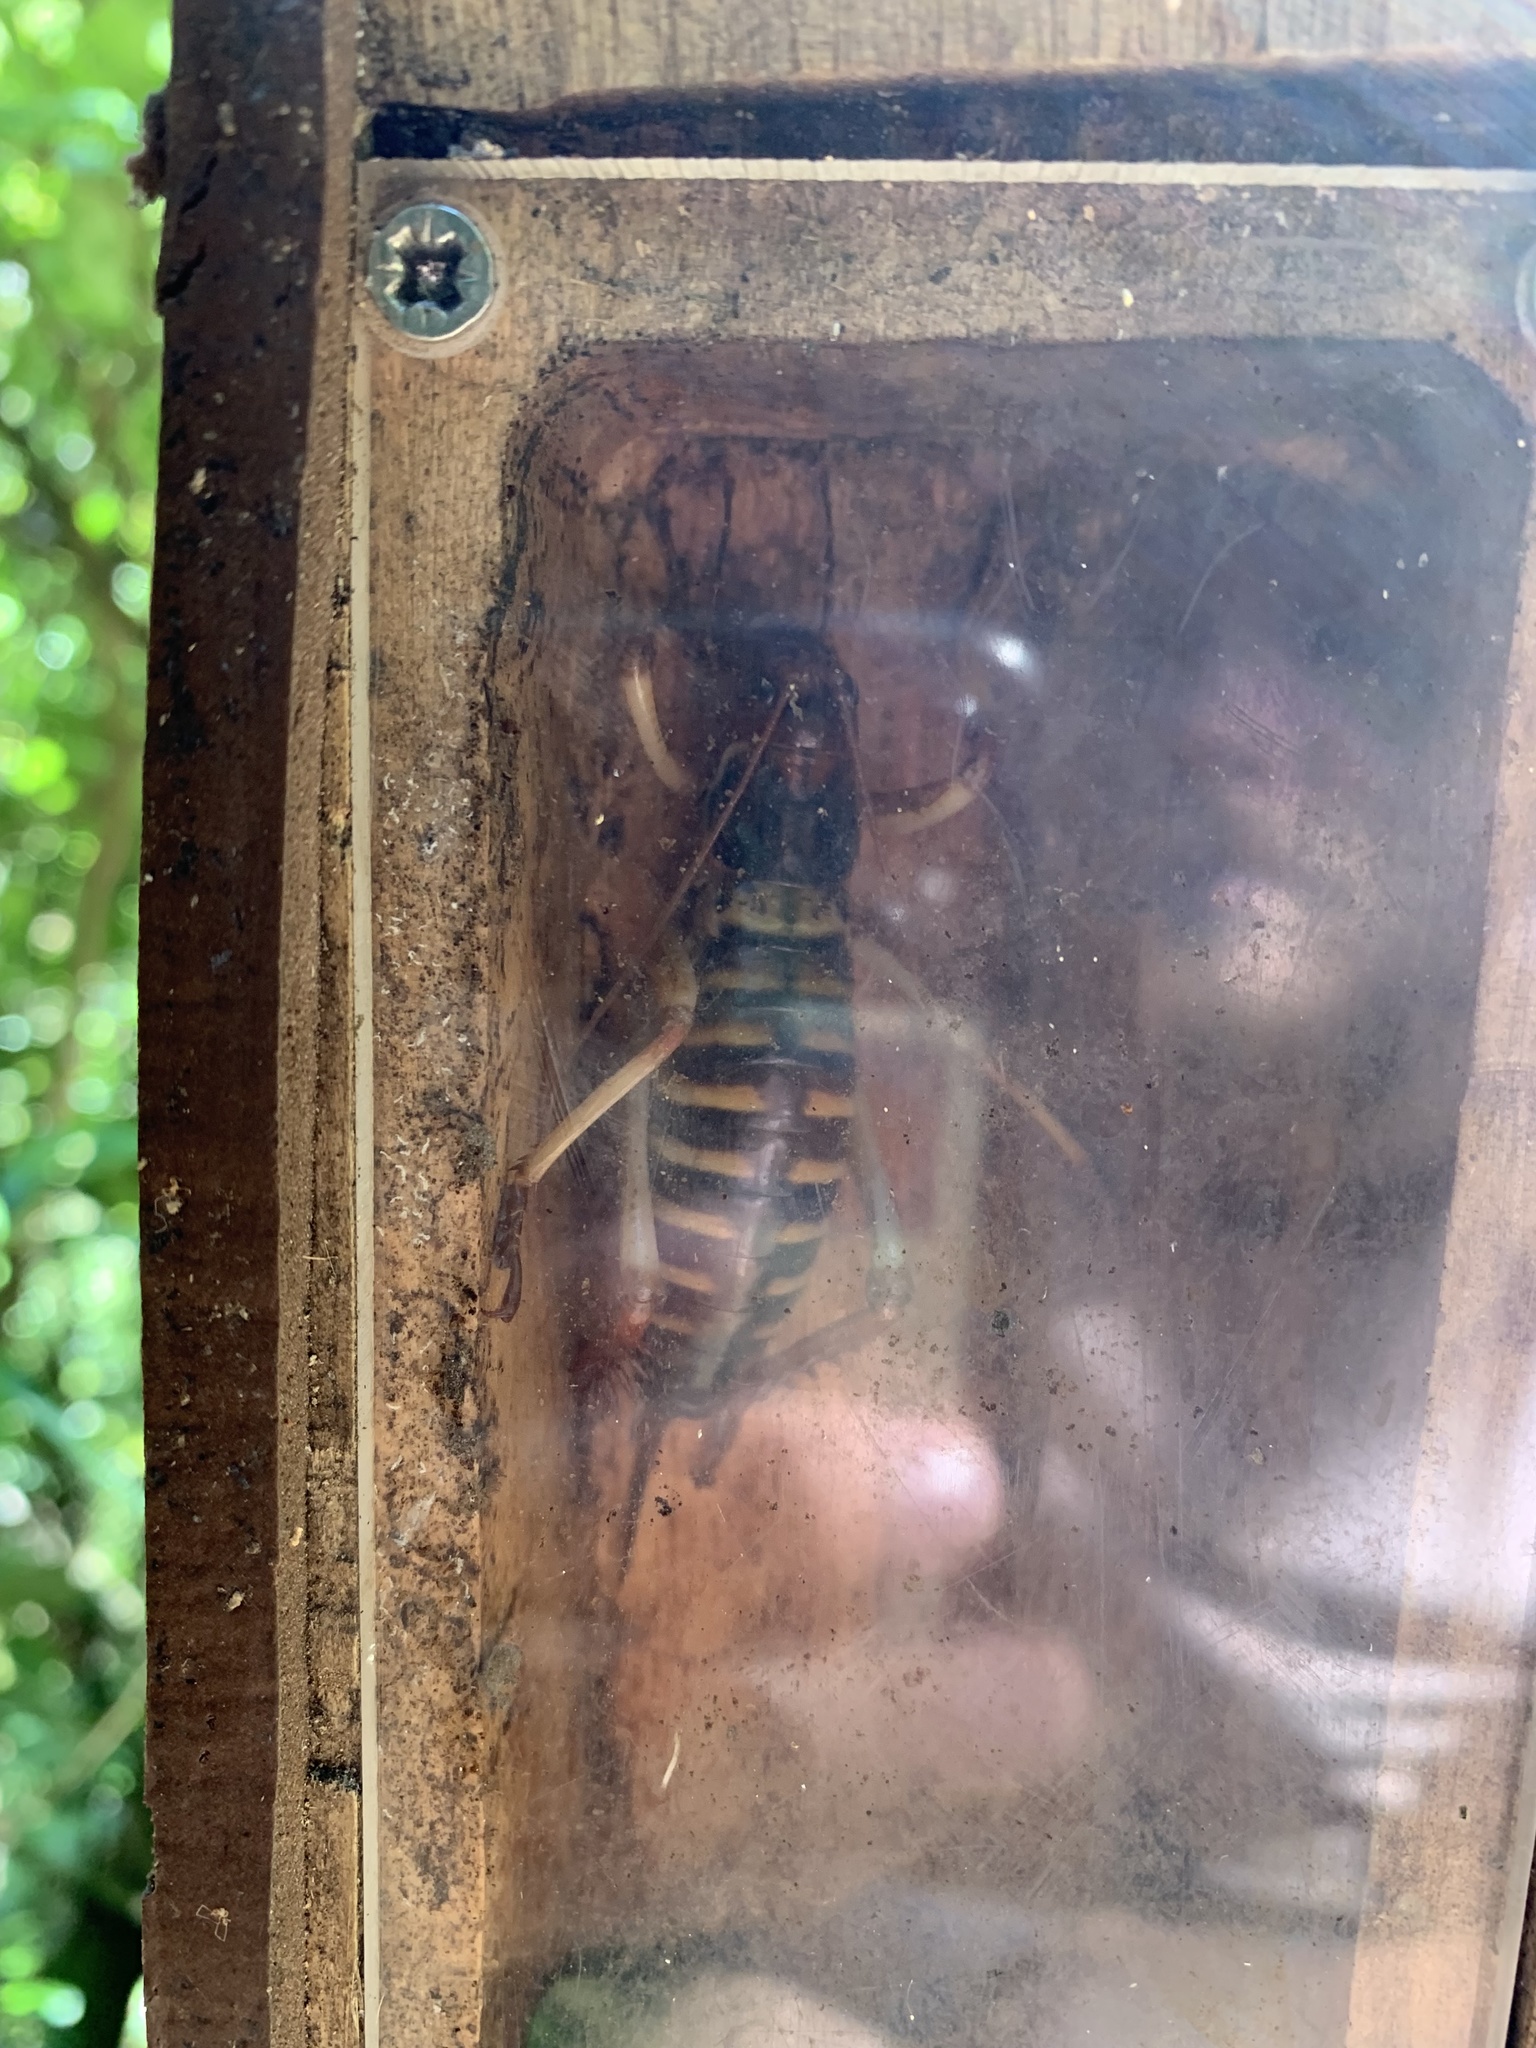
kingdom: Animalia
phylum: Arthropoda
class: Insecta
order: Orthoptera
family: Anostostomatidae
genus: Hemideina
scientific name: Hemideina crassidens
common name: Wellington tree weta
